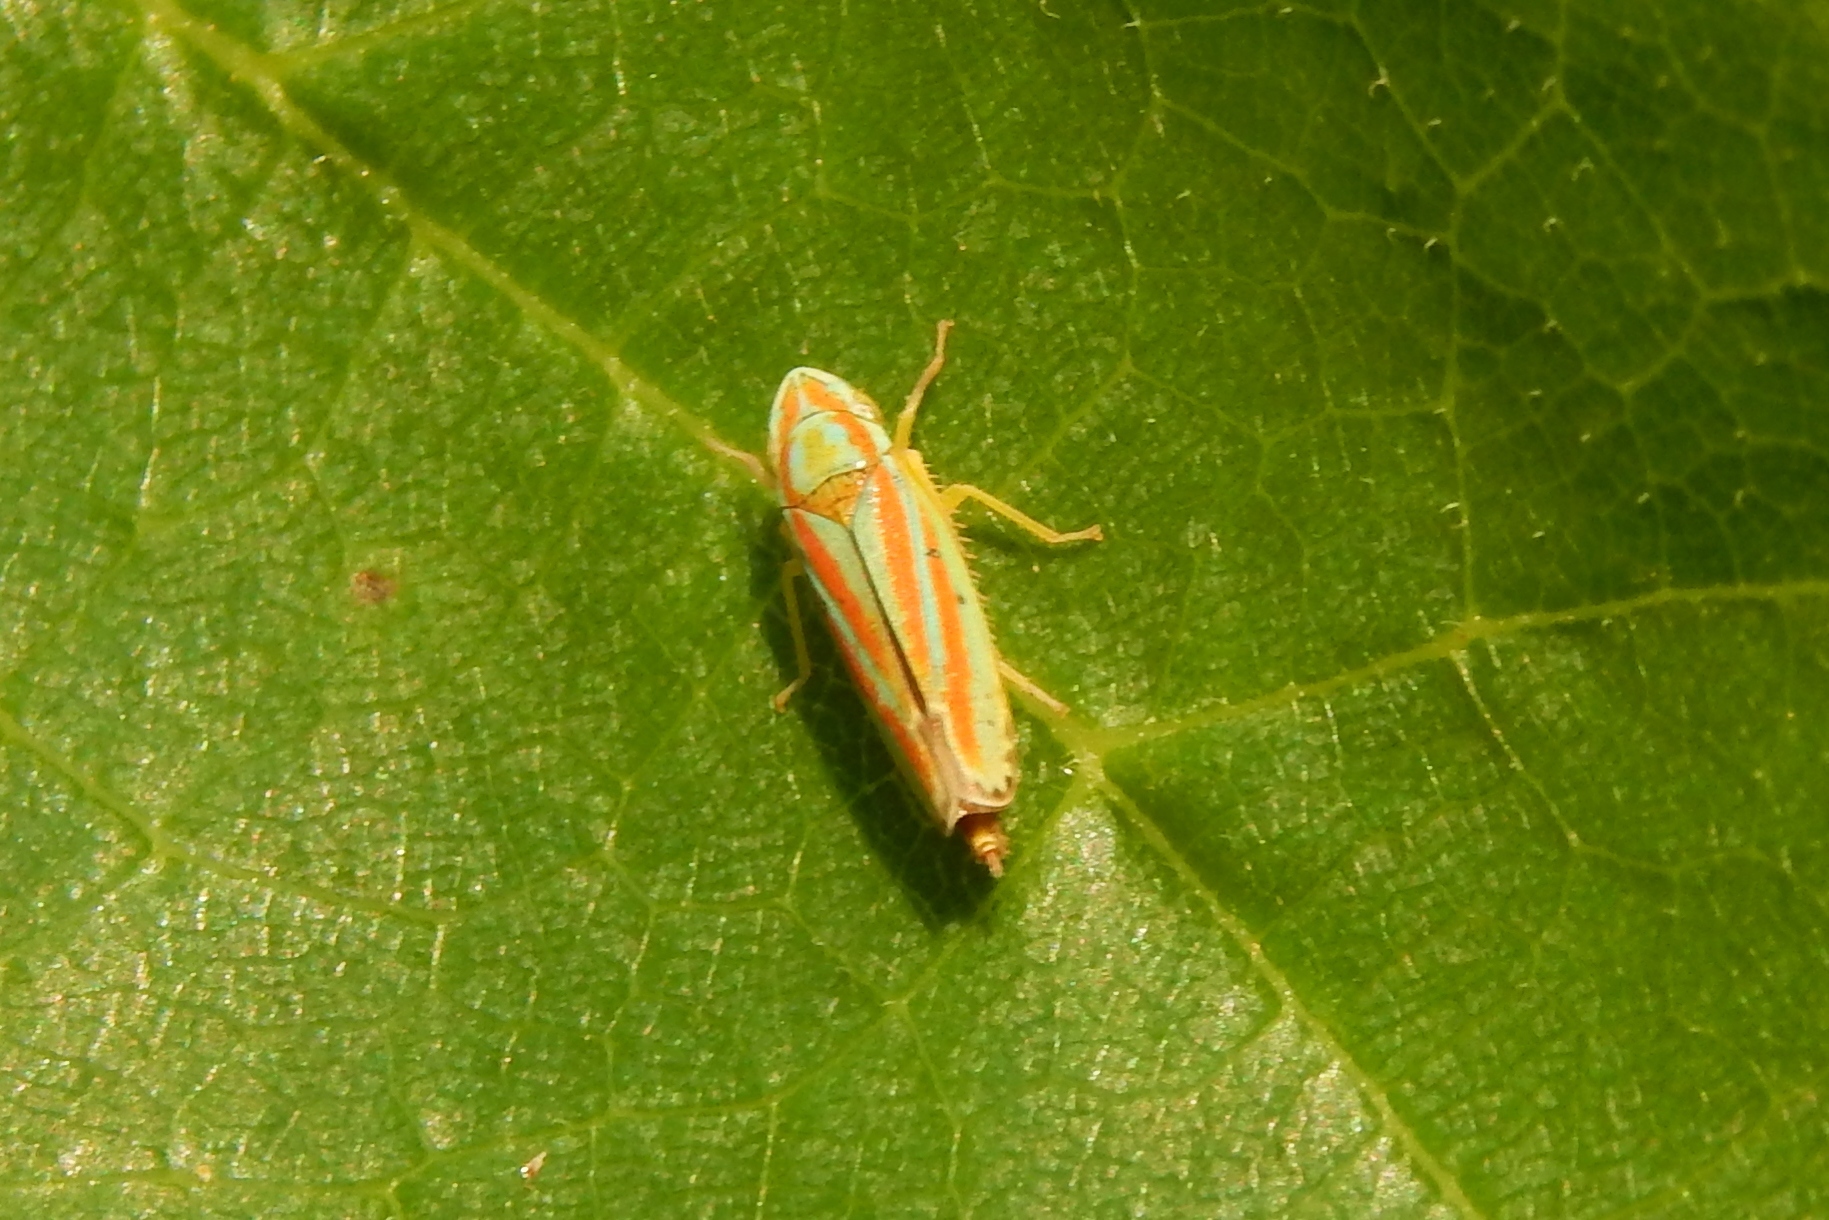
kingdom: Animalia
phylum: Arthropoda
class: Insecta
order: Hemiptera
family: Cicadellidae
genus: Graphocephala
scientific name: Graphocephala versuta
